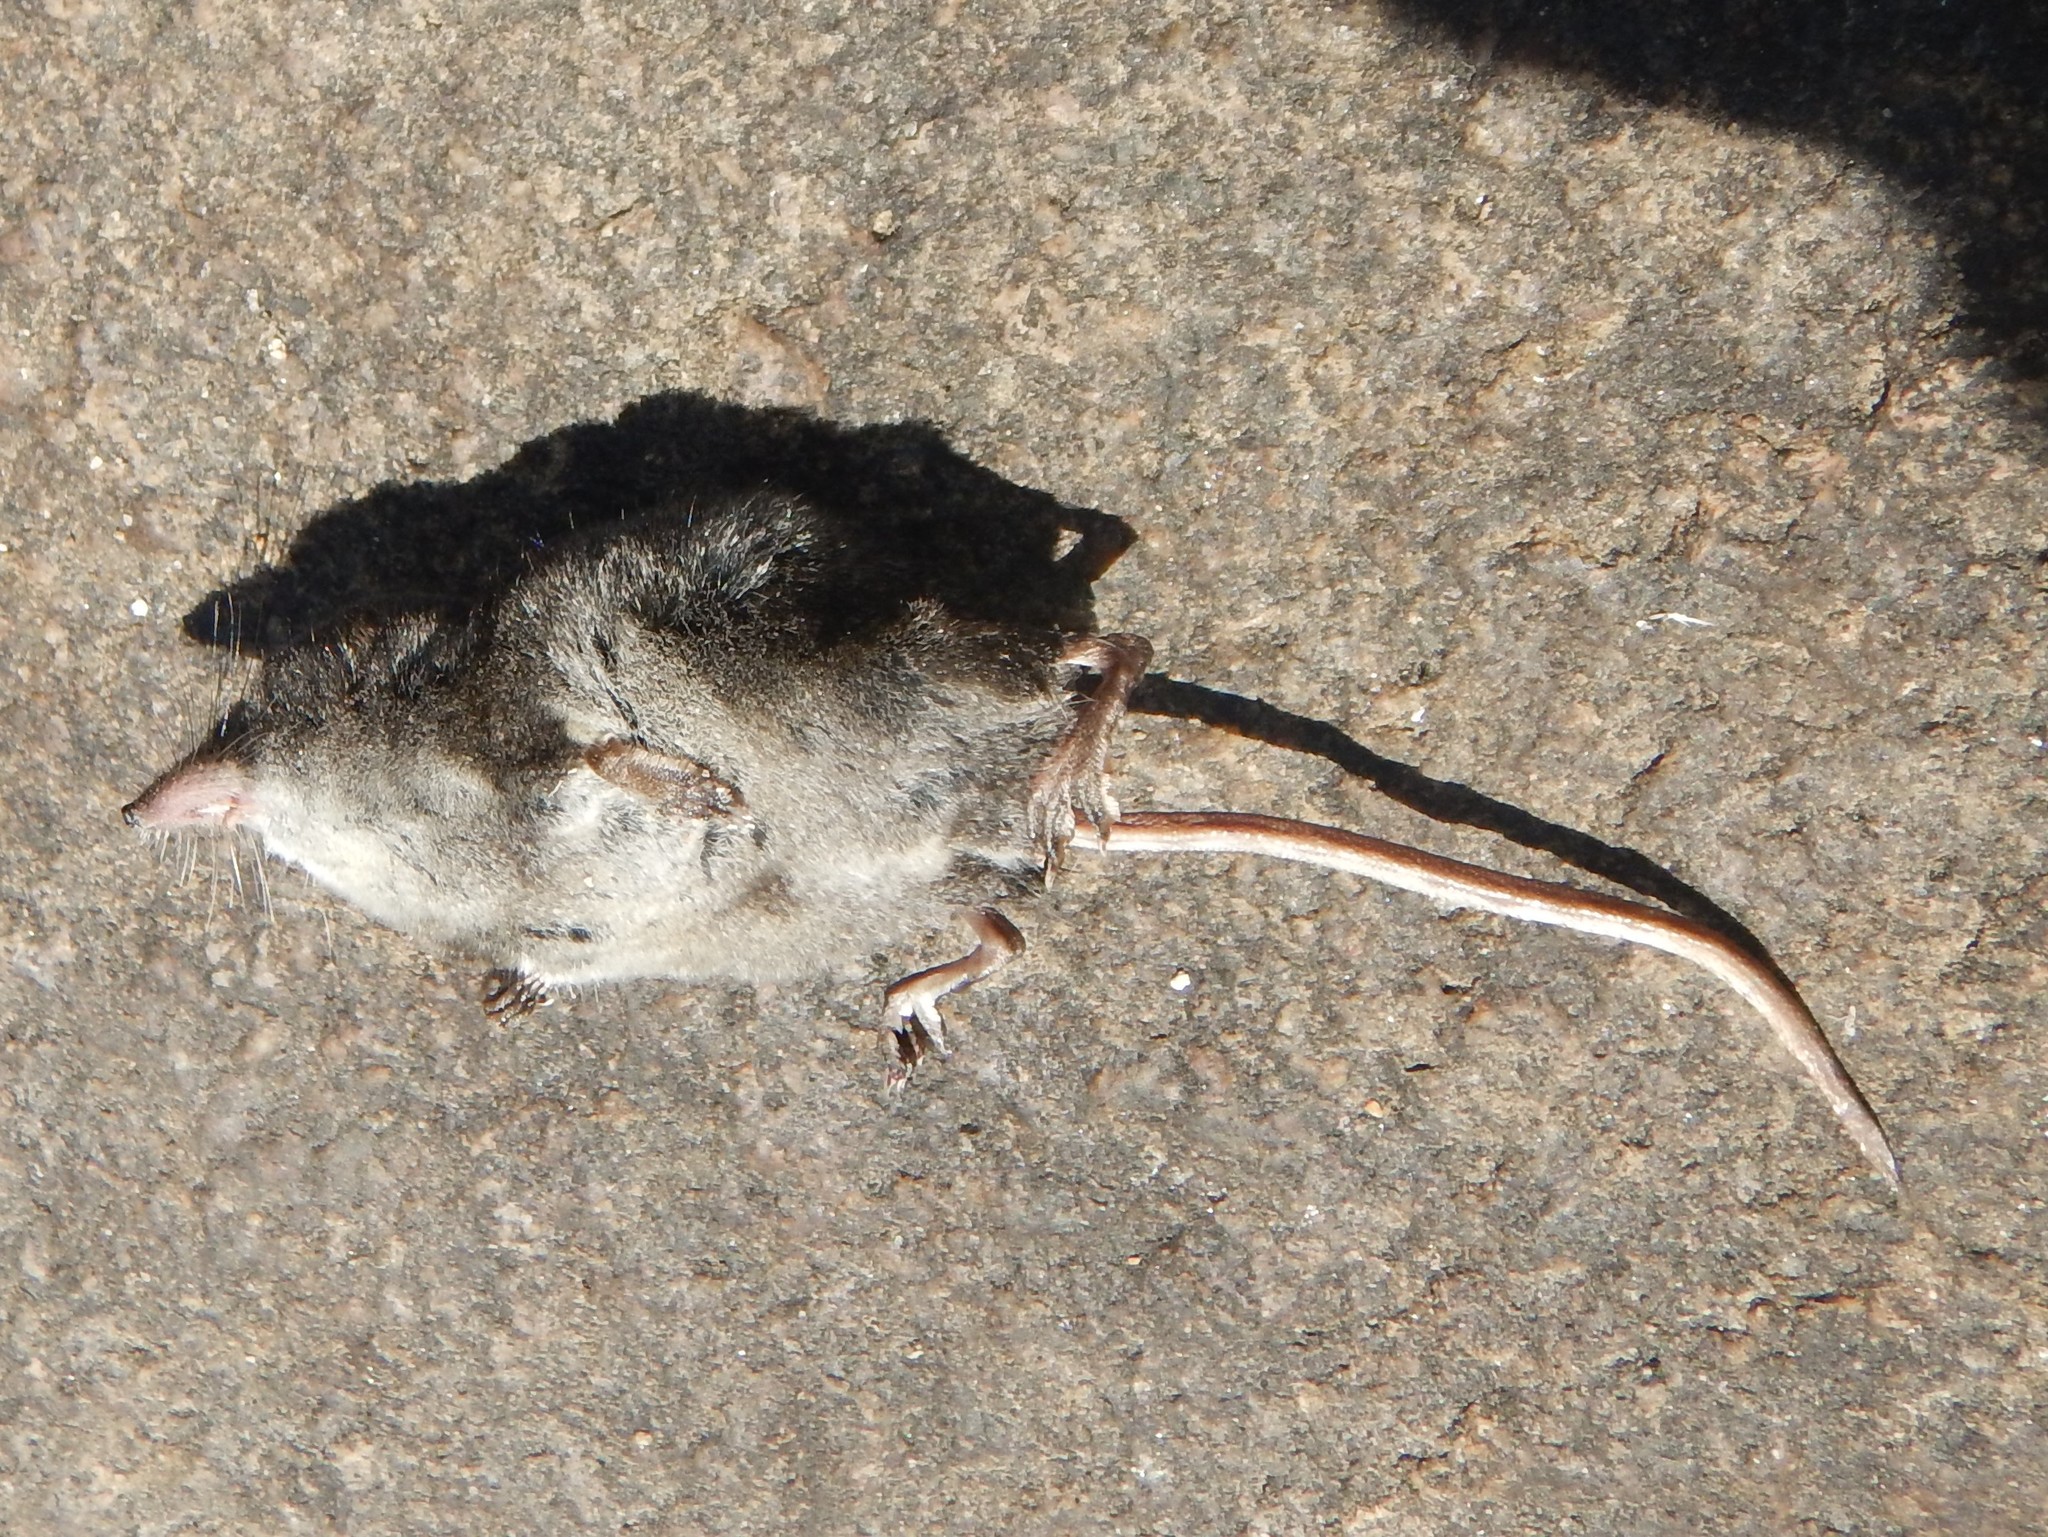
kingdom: Animalia
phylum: Chordata
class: Mammalia
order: Soricomorpha
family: Soricidae
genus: Sorex
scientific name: Sorex palustris
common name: American water shrew
